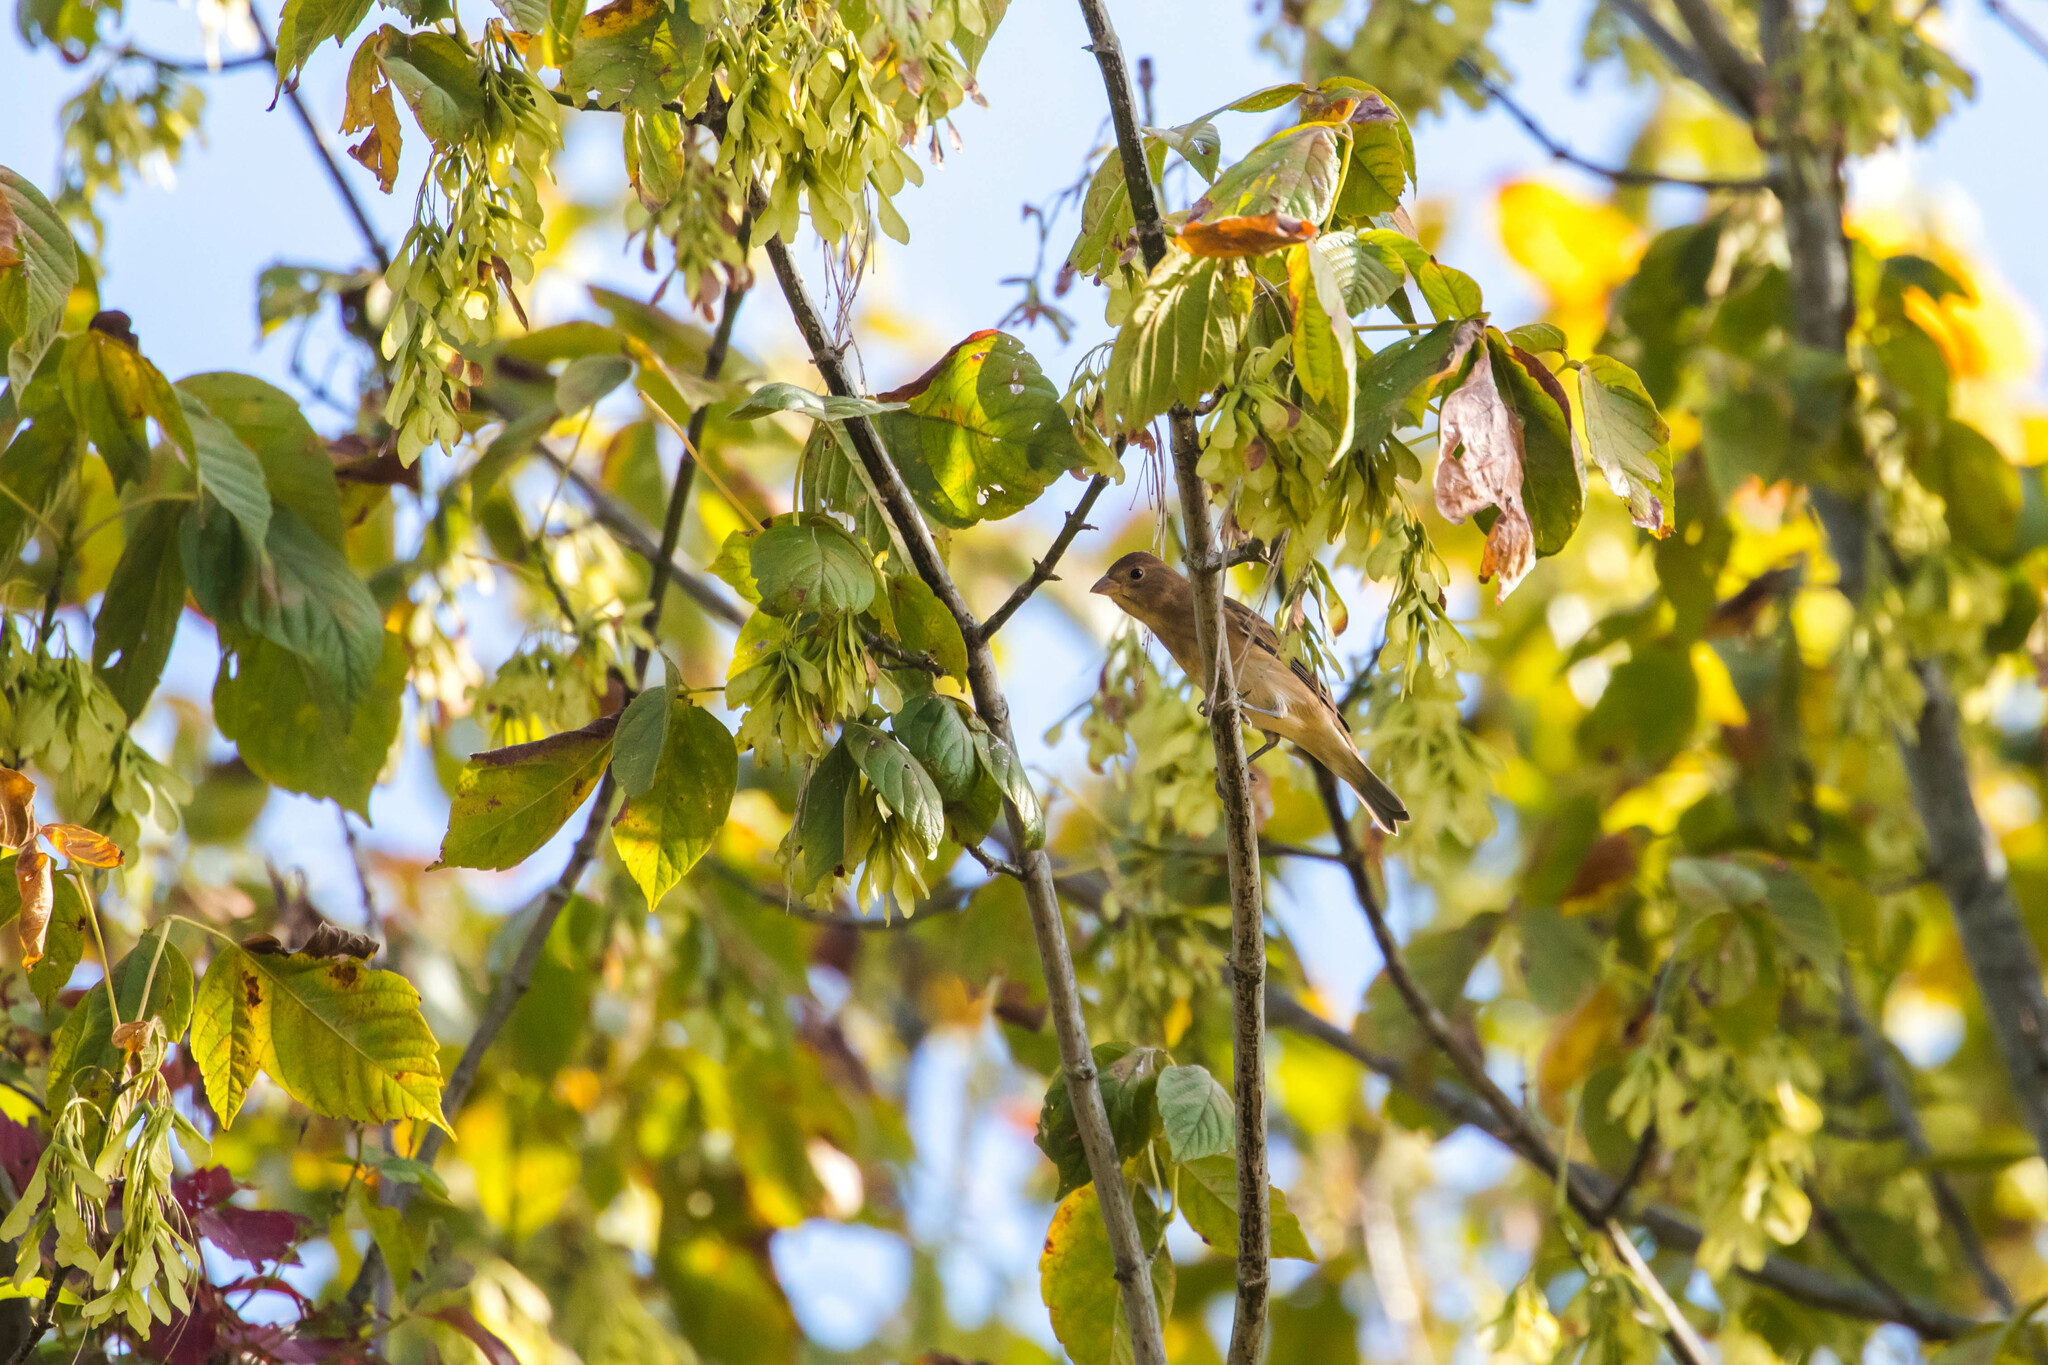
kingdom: Animalia
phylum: Chordata
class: Aves
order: Passeriformes
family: Cardinalidae
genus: Passerina
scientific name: Passerina cyanea
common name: Indigo bunting
